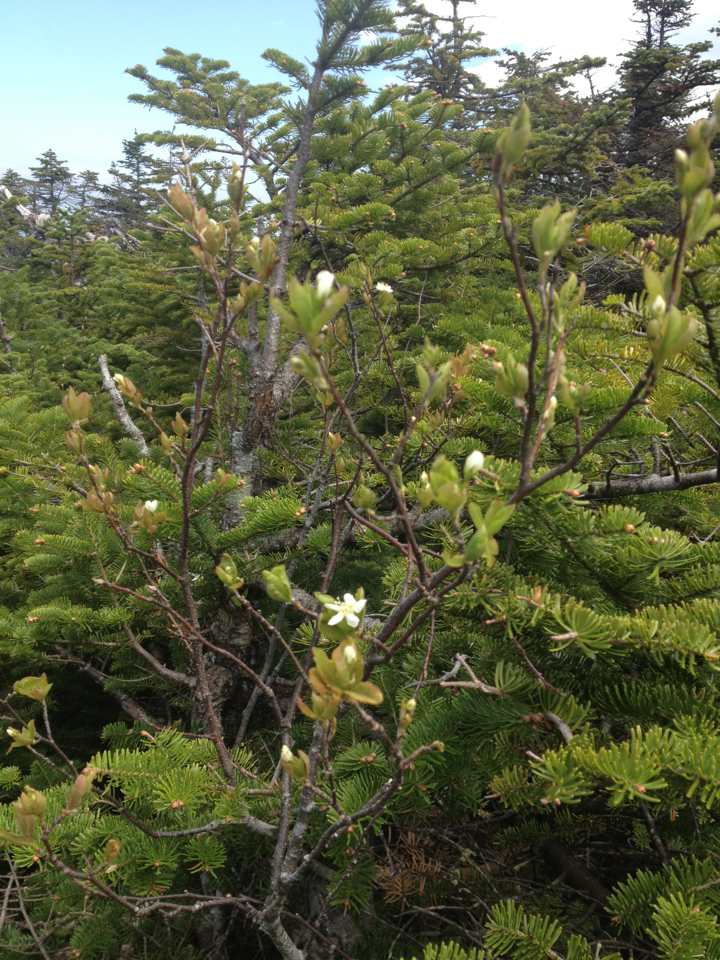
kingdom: Plantae
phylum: Tracheophyta
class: Magnoliopsida
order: Rosales
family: Rosaceae
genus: Amelanchier
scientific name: Amelanchier bartramiana
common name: Mountain serviceberry
